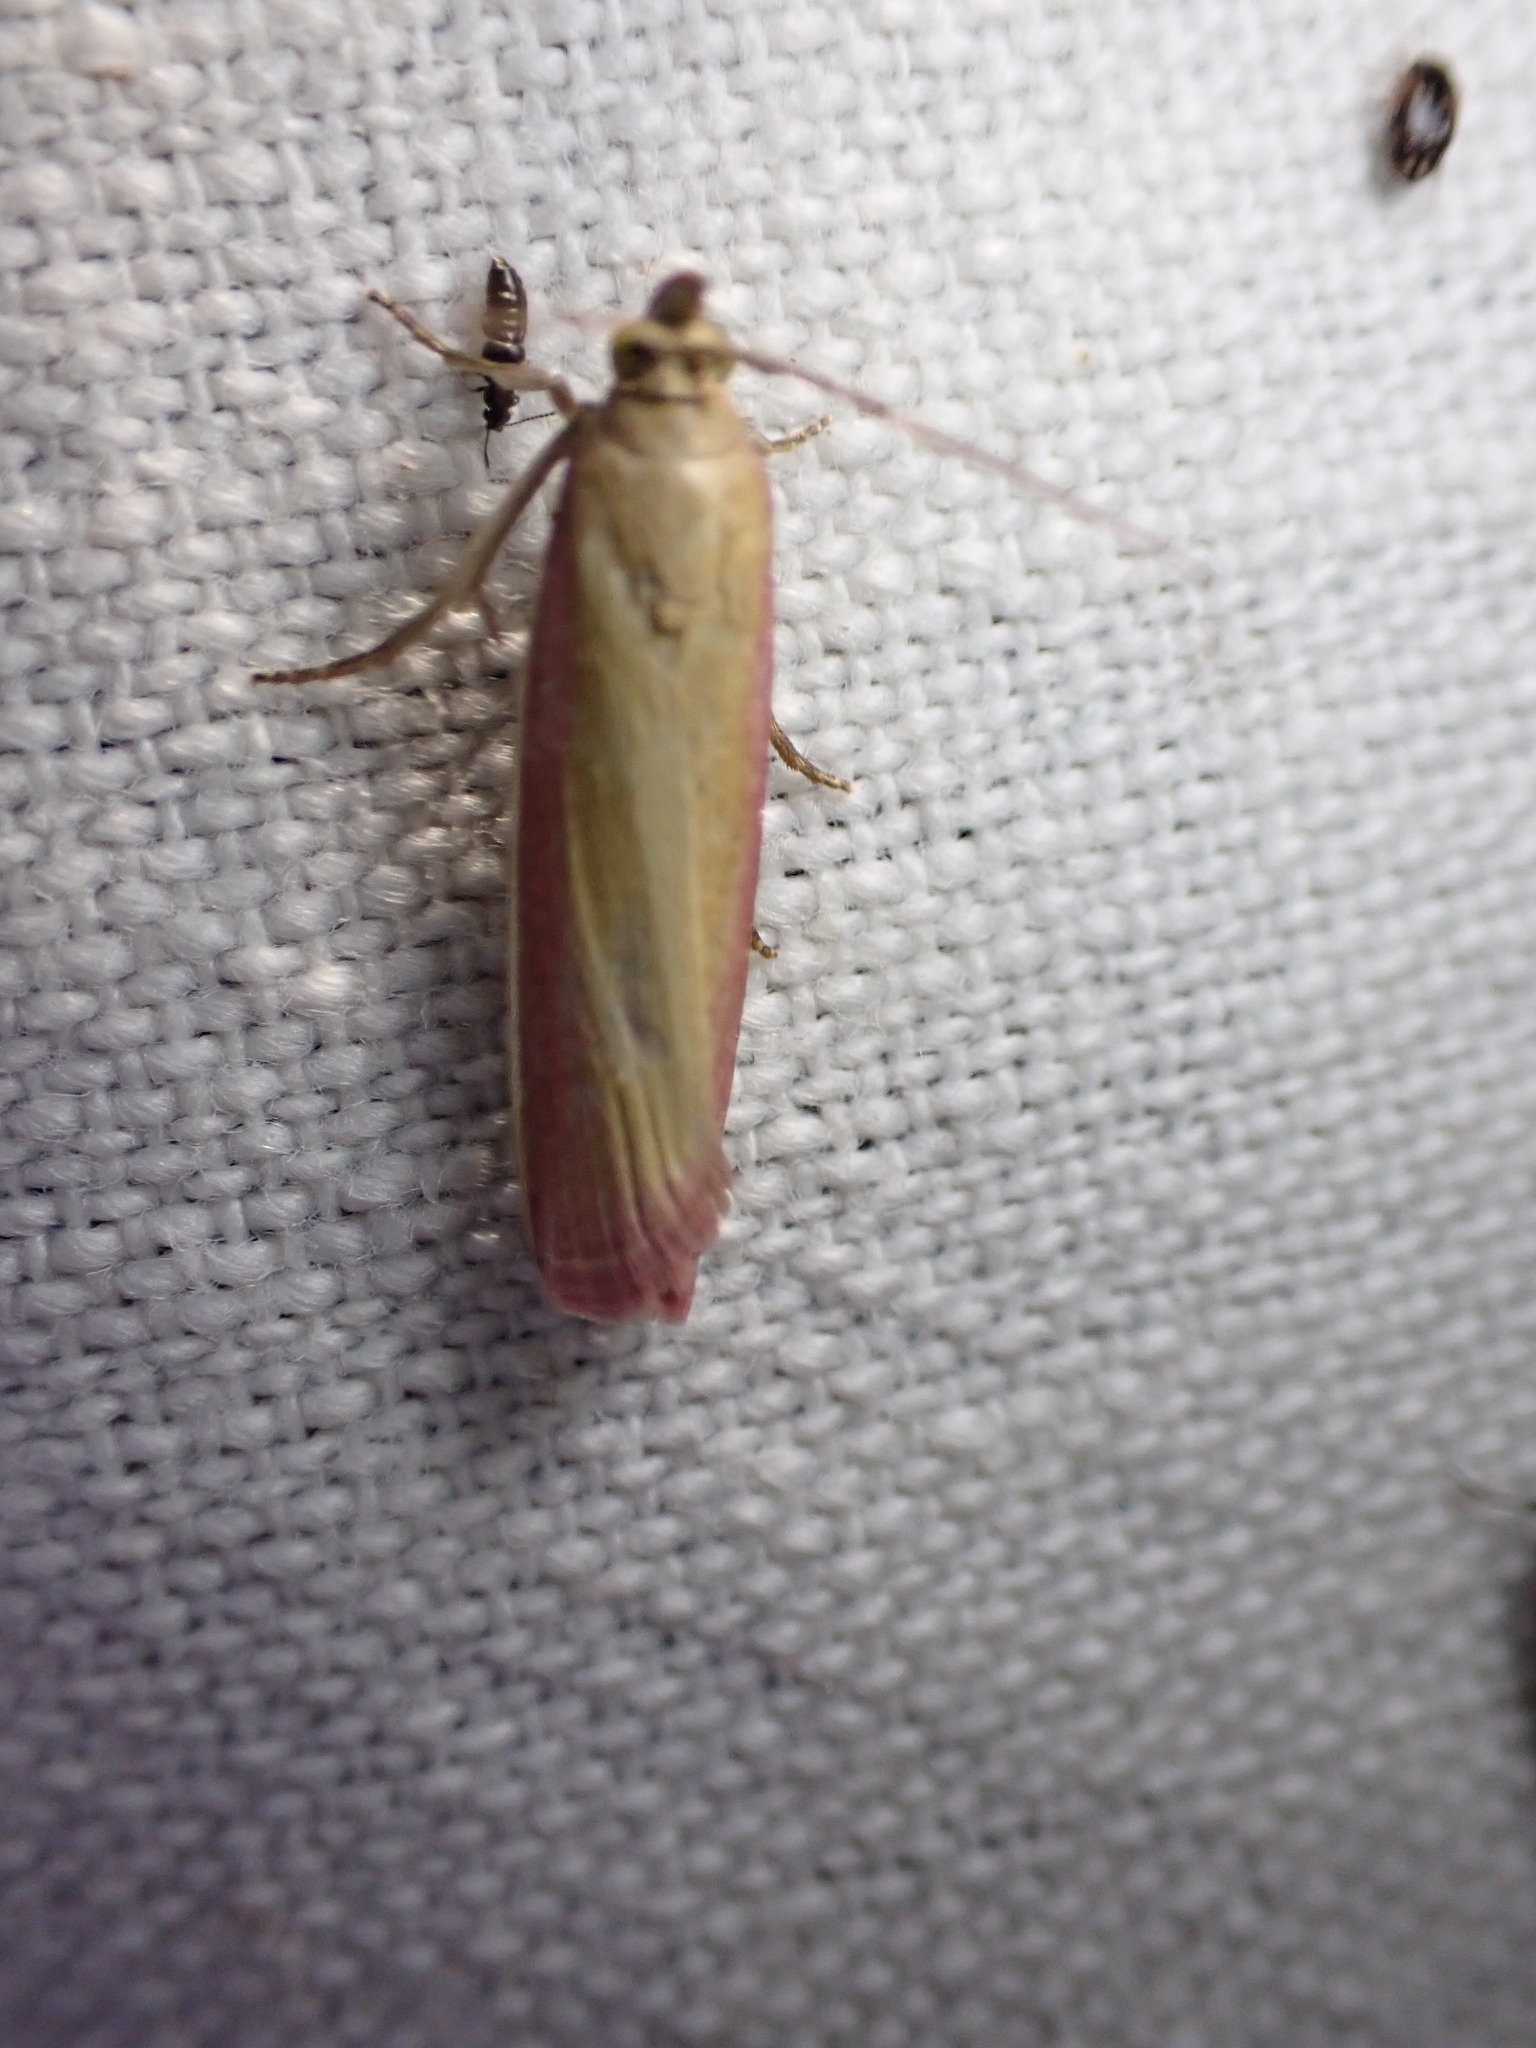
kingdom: Animalia
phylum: Arthropoda
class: Insecta
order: Lepidoptera
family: Pyralidae
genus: Oncocera
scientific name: Oncocera semirubella
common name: Rosy-striped knot-horn
